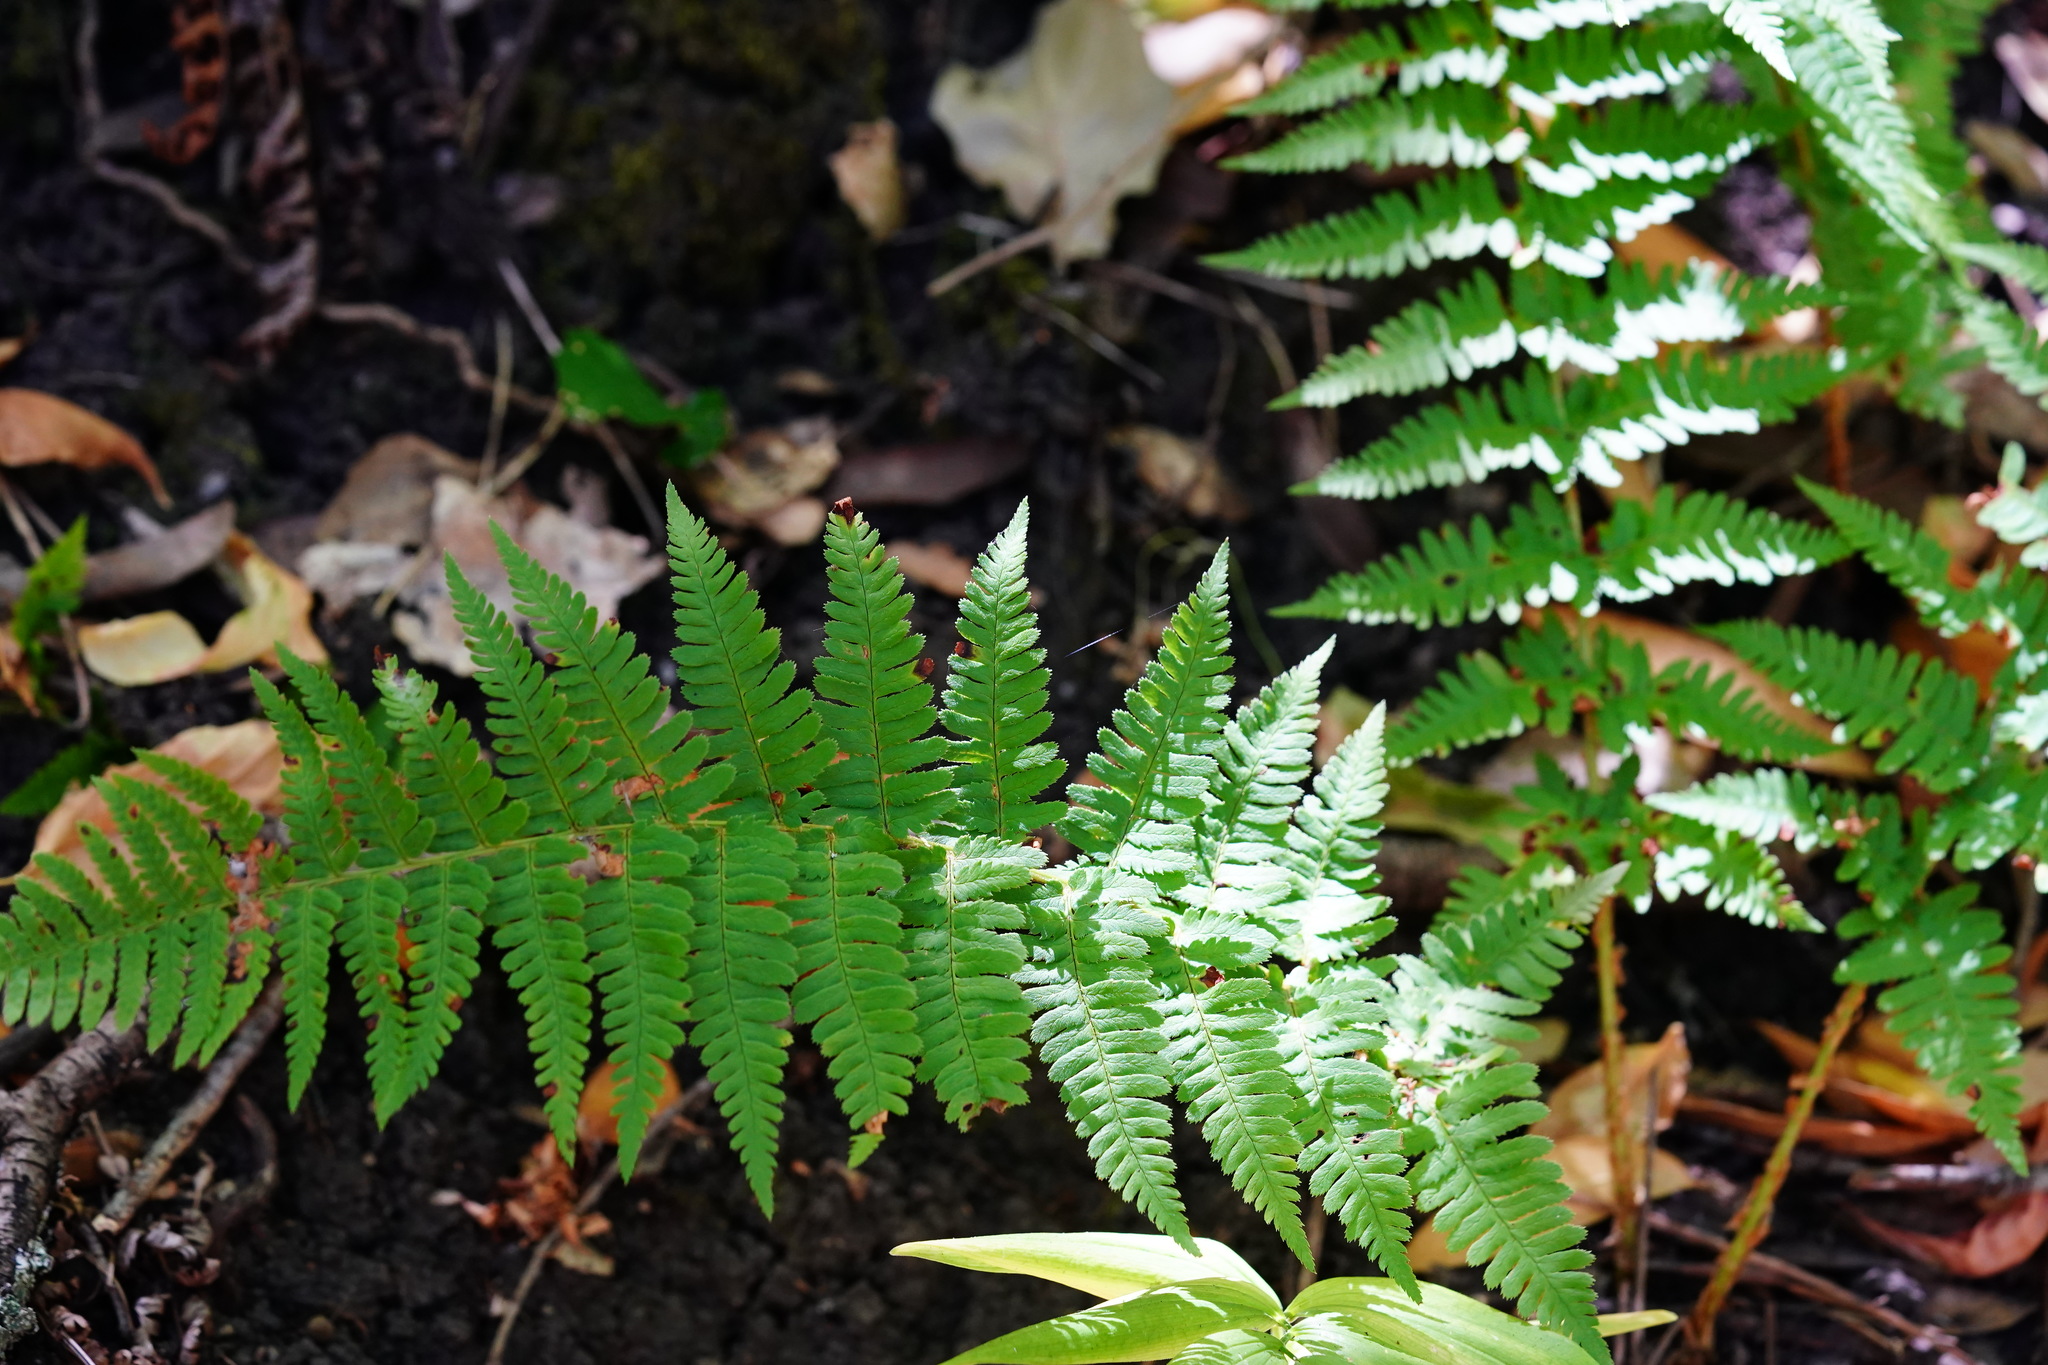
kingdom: Plantae
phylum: Tracheophyta
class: Polypodiopsida
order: Polypodiales
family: Dryopteridaceae
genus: Dryopteris
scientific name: Dryopteris arguta
